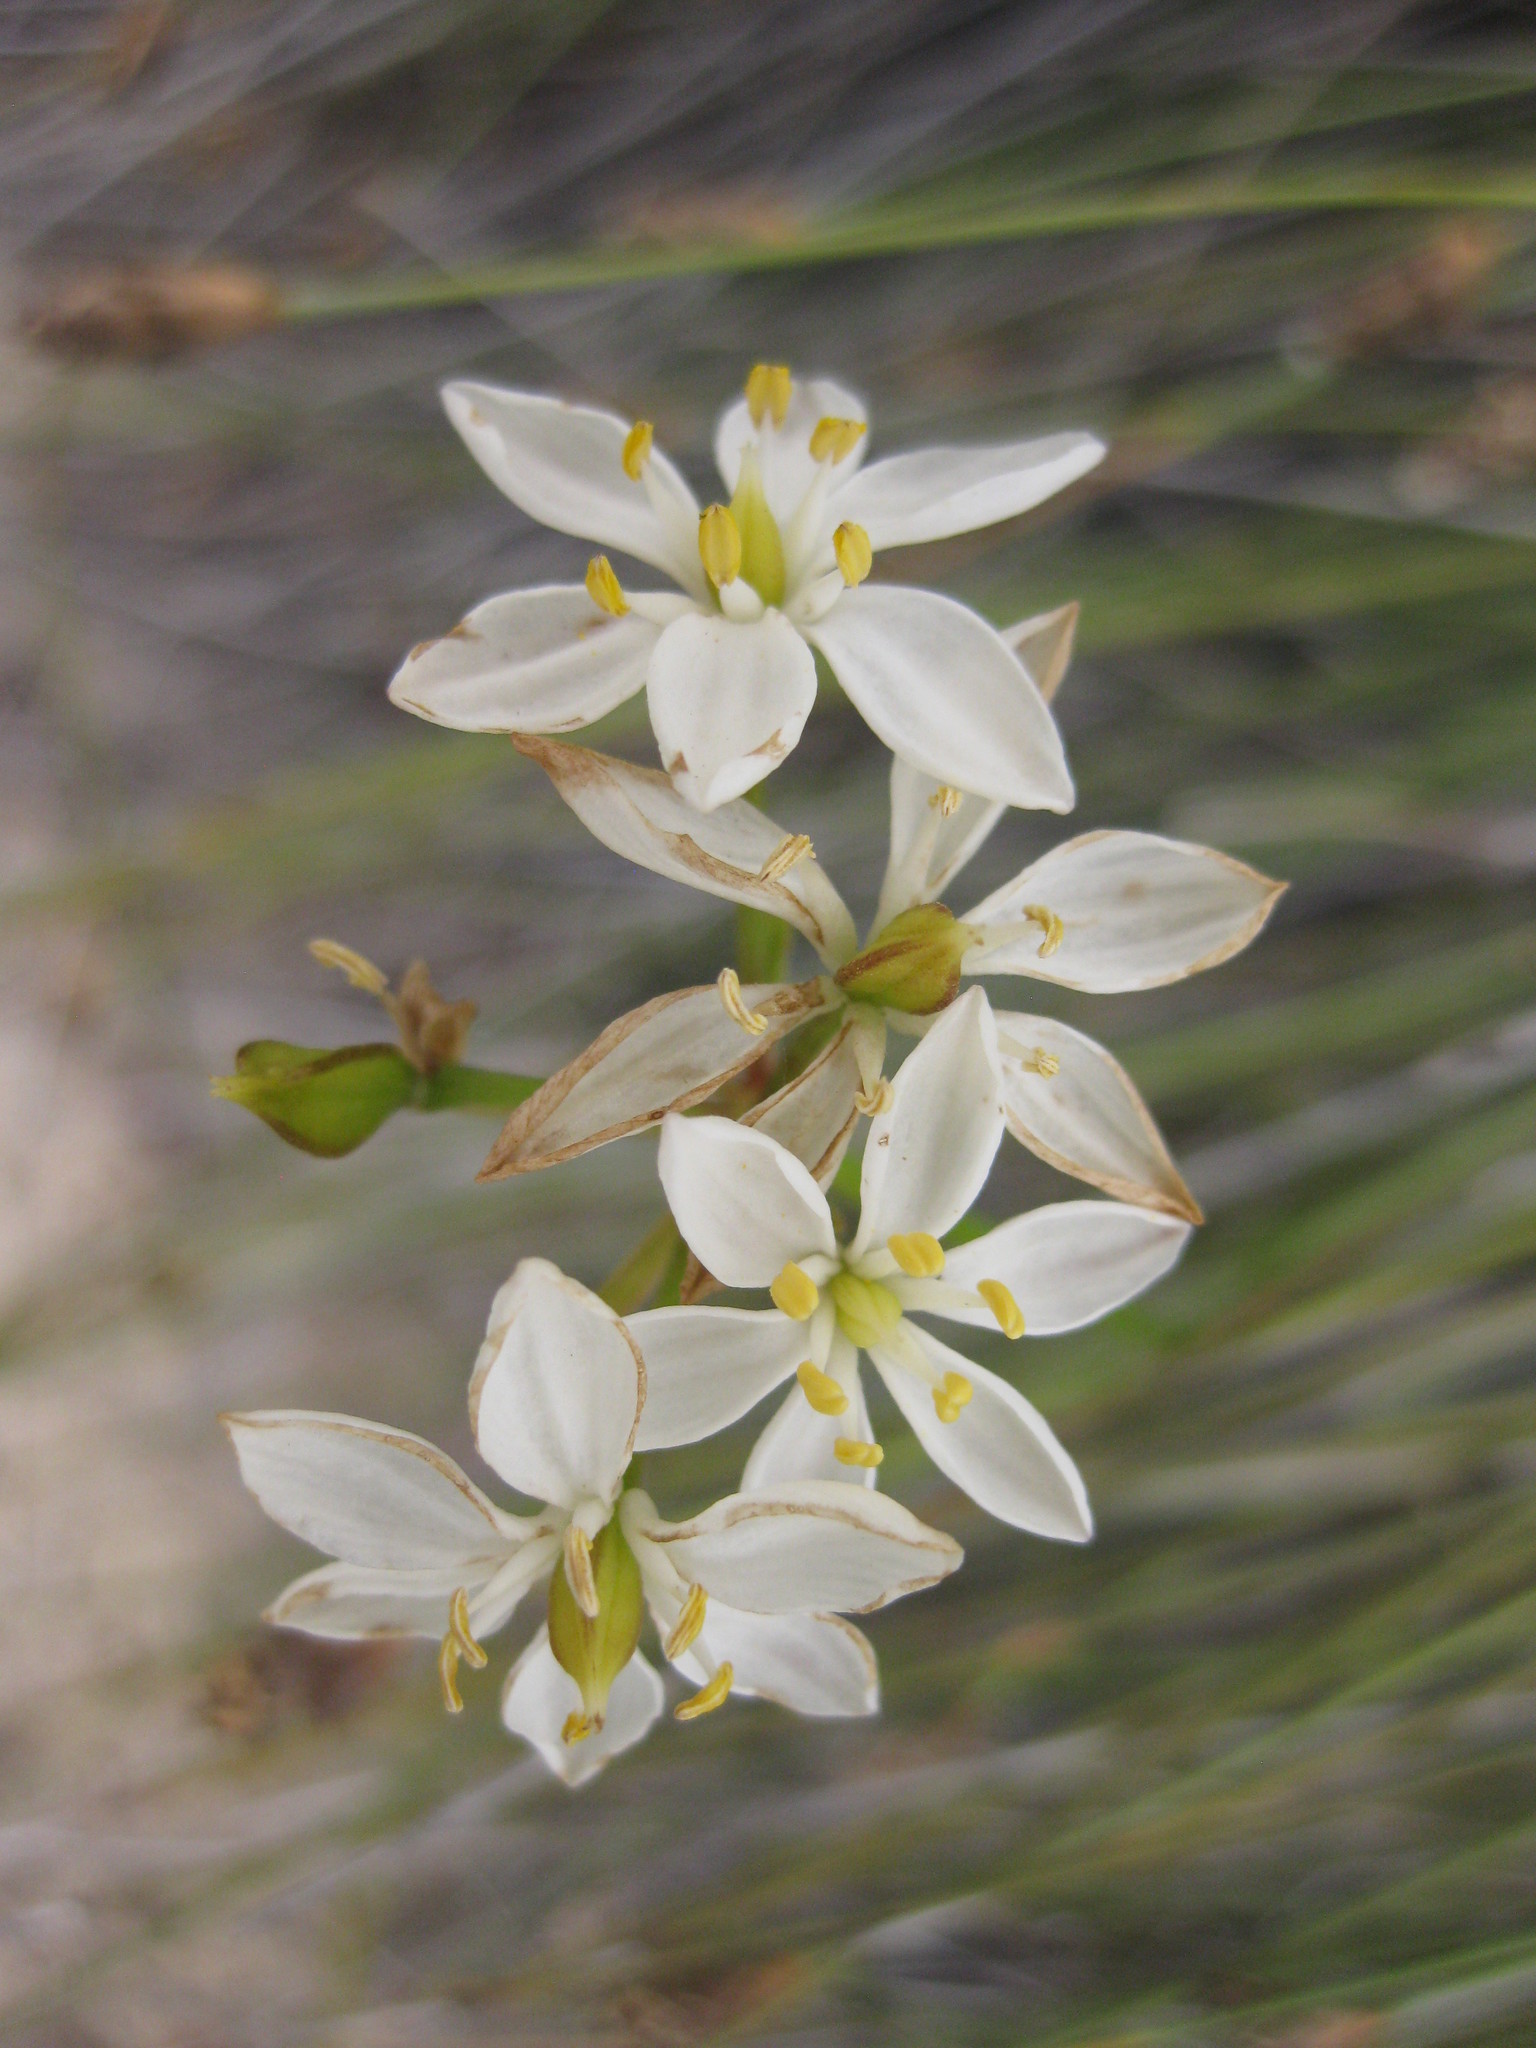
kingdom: Plantae
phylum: Tracheophyta
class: Liliopsida
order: Liliales
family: Colchicaceae
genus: Burchardia
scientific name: Burchardia congesta
